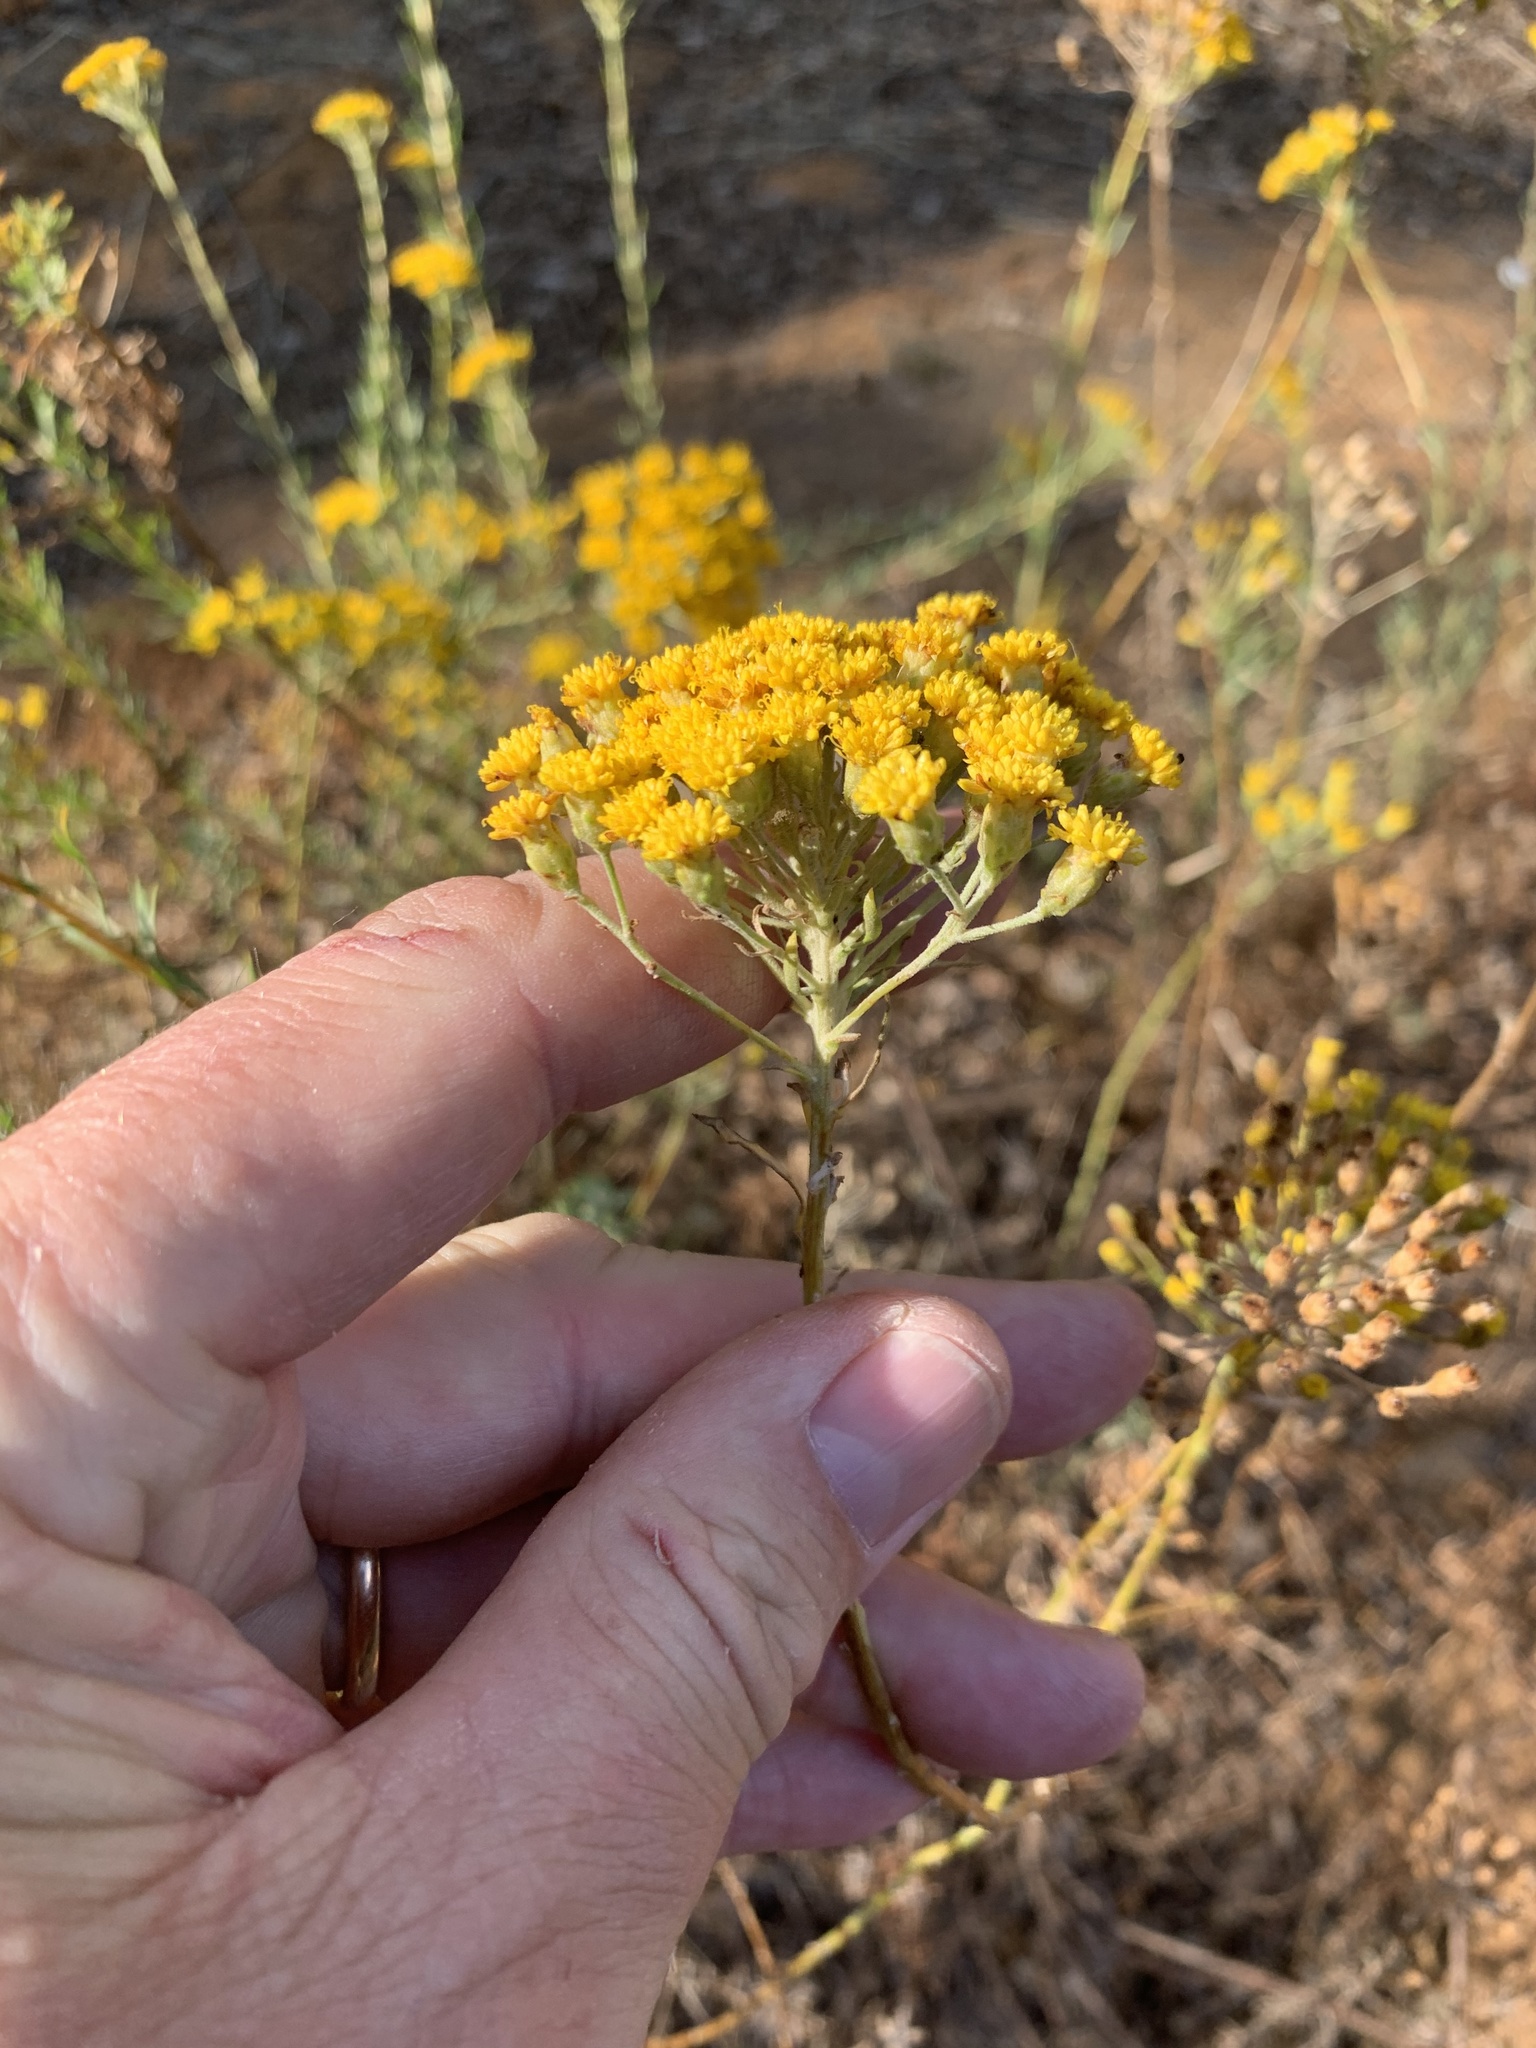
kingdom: Plantae
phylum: Tracheophyta
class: Magnoliopsida
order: Asterales
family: Asteraceae
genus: Athanasia
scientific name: Athanasia trifurcata
